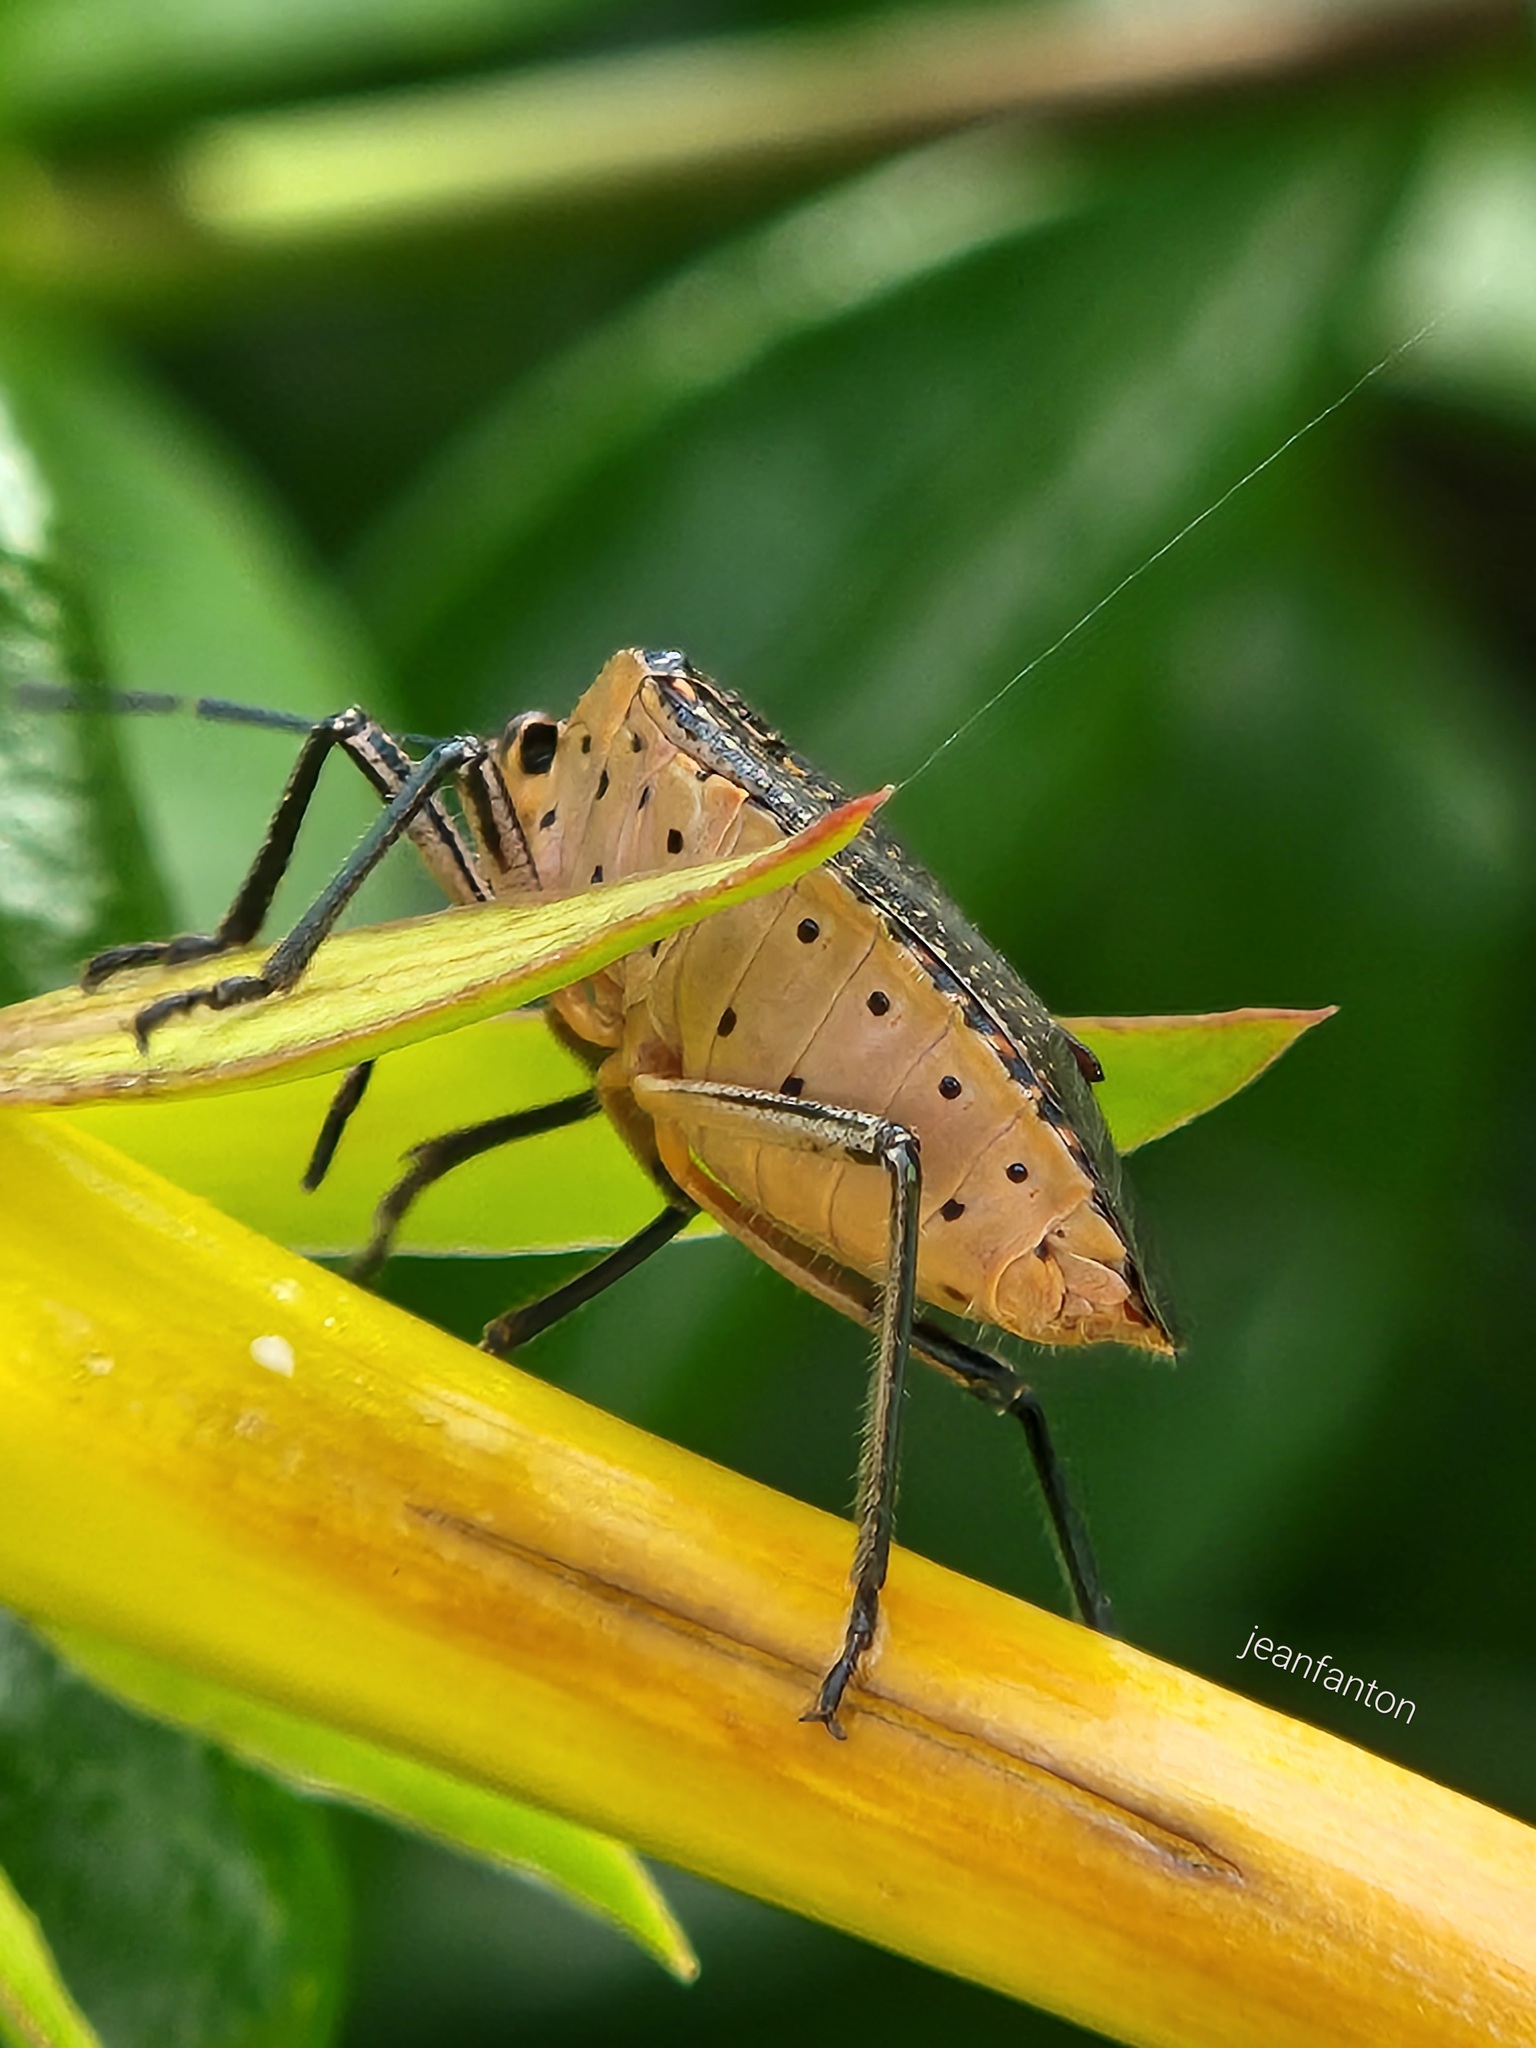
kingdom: Animalia
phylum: Arthropoda
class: Insecta
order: Hemiptera
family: Pentatomidae
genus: Pellaea
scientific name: Pellaea stictica
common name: Stink bug
